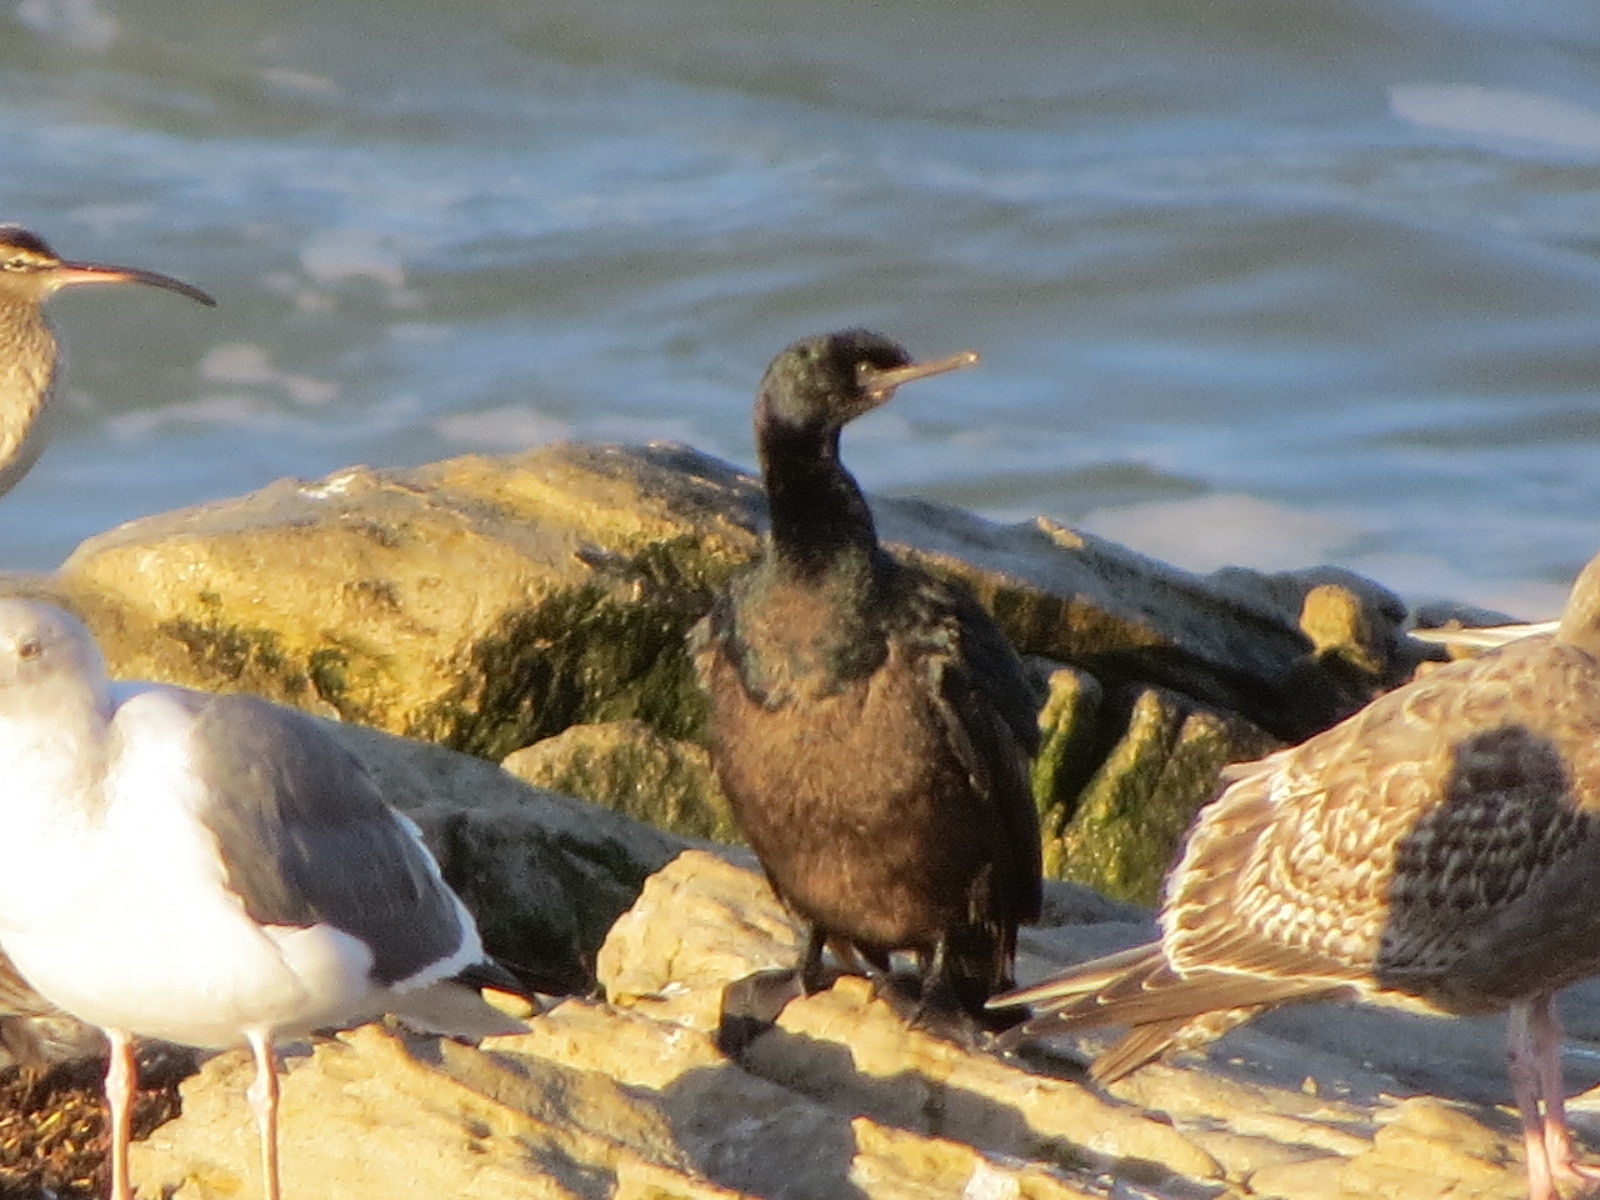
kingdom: Animalia
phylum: Chordata
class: Aves
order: Suliformes
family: Phalacrocoracidae
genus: Phalacrocorax
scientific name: Phalacrocorax pelagicus
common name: Pelagic cormorant
